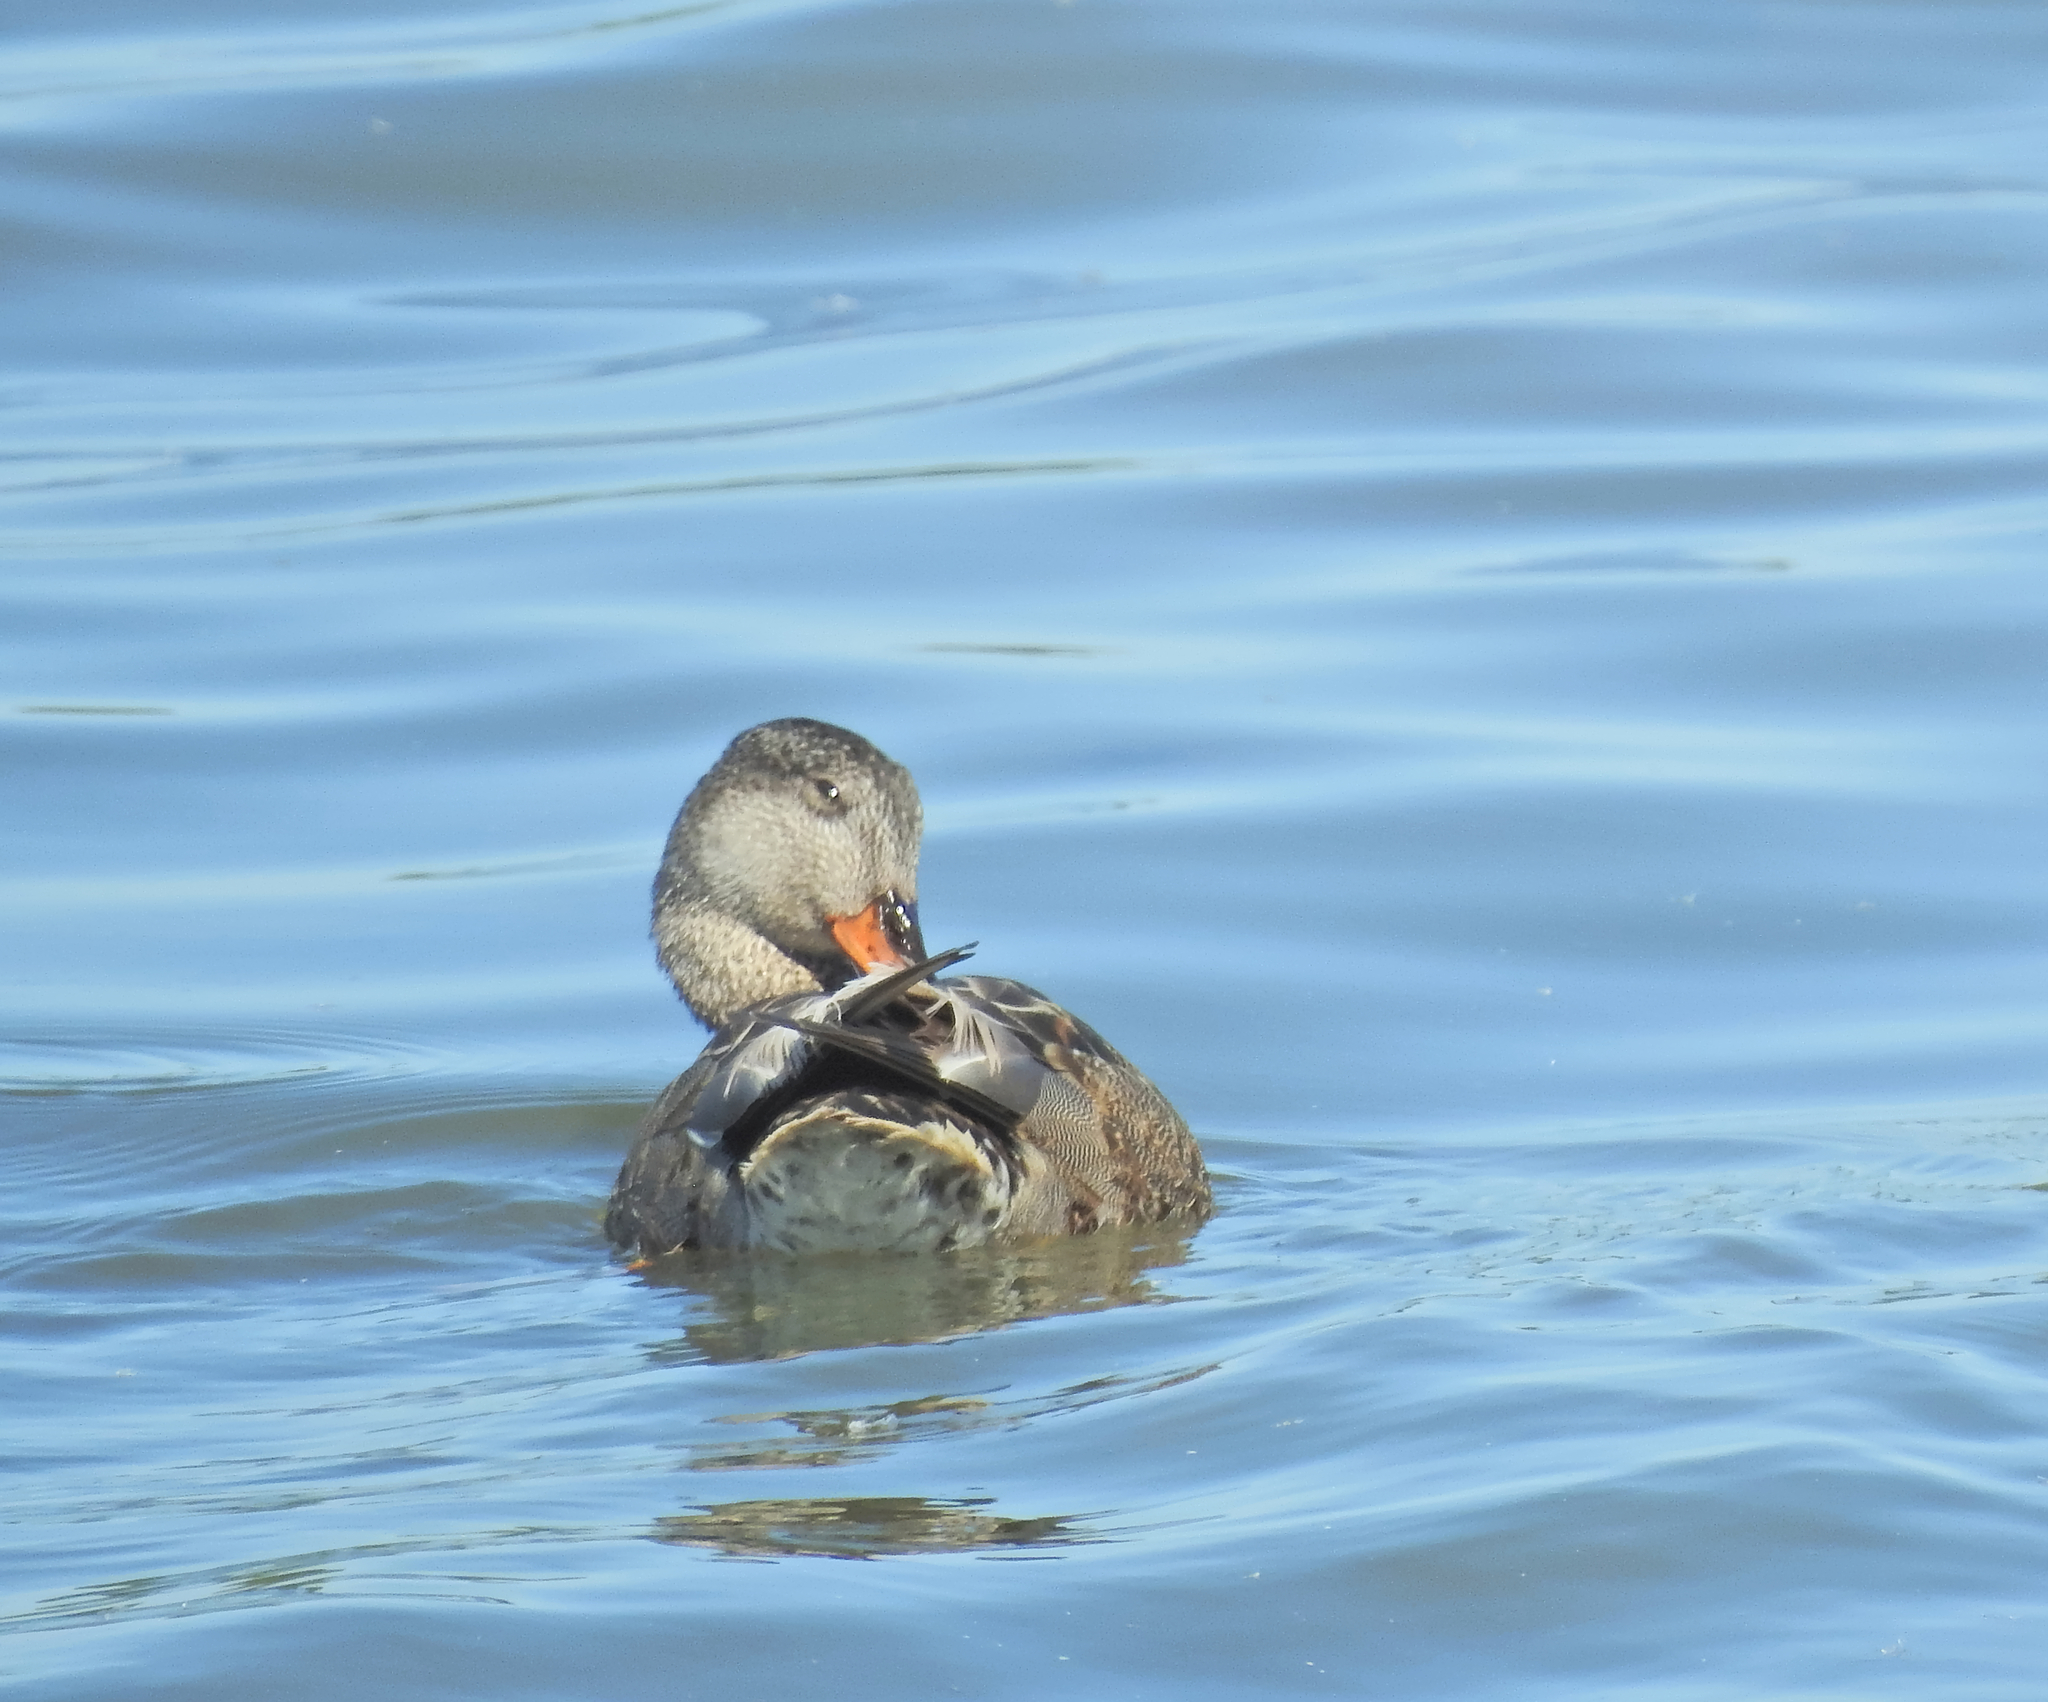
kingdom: Animalia
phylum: Chordata
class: Aves
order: Anseriformes
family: Anatidae
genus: Mareca
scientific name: Mareca strepera
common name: Gadwall
